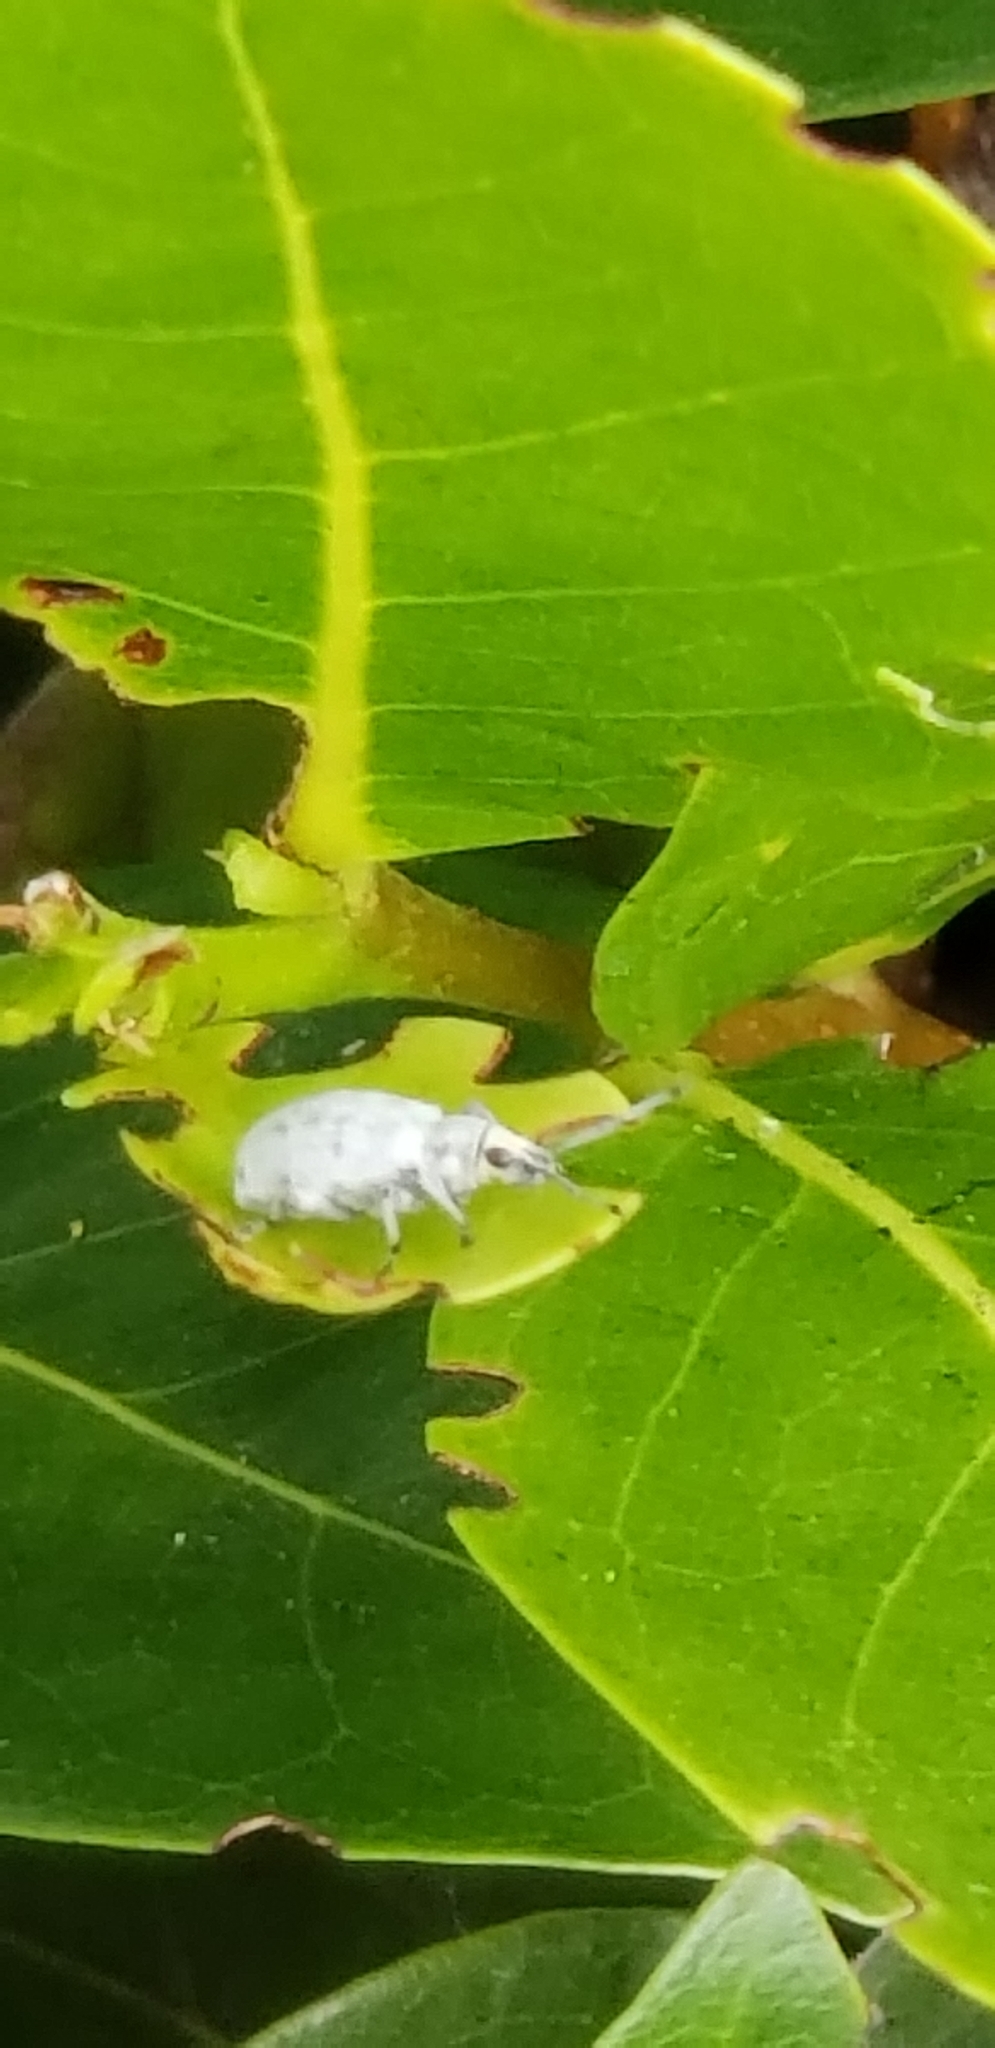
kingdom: Animalia
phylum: Arthropoda
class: Insecta
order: Coleoptera
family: Curculionidae
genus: Myllocerus
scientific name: Myllocerus undecimpustulatus
